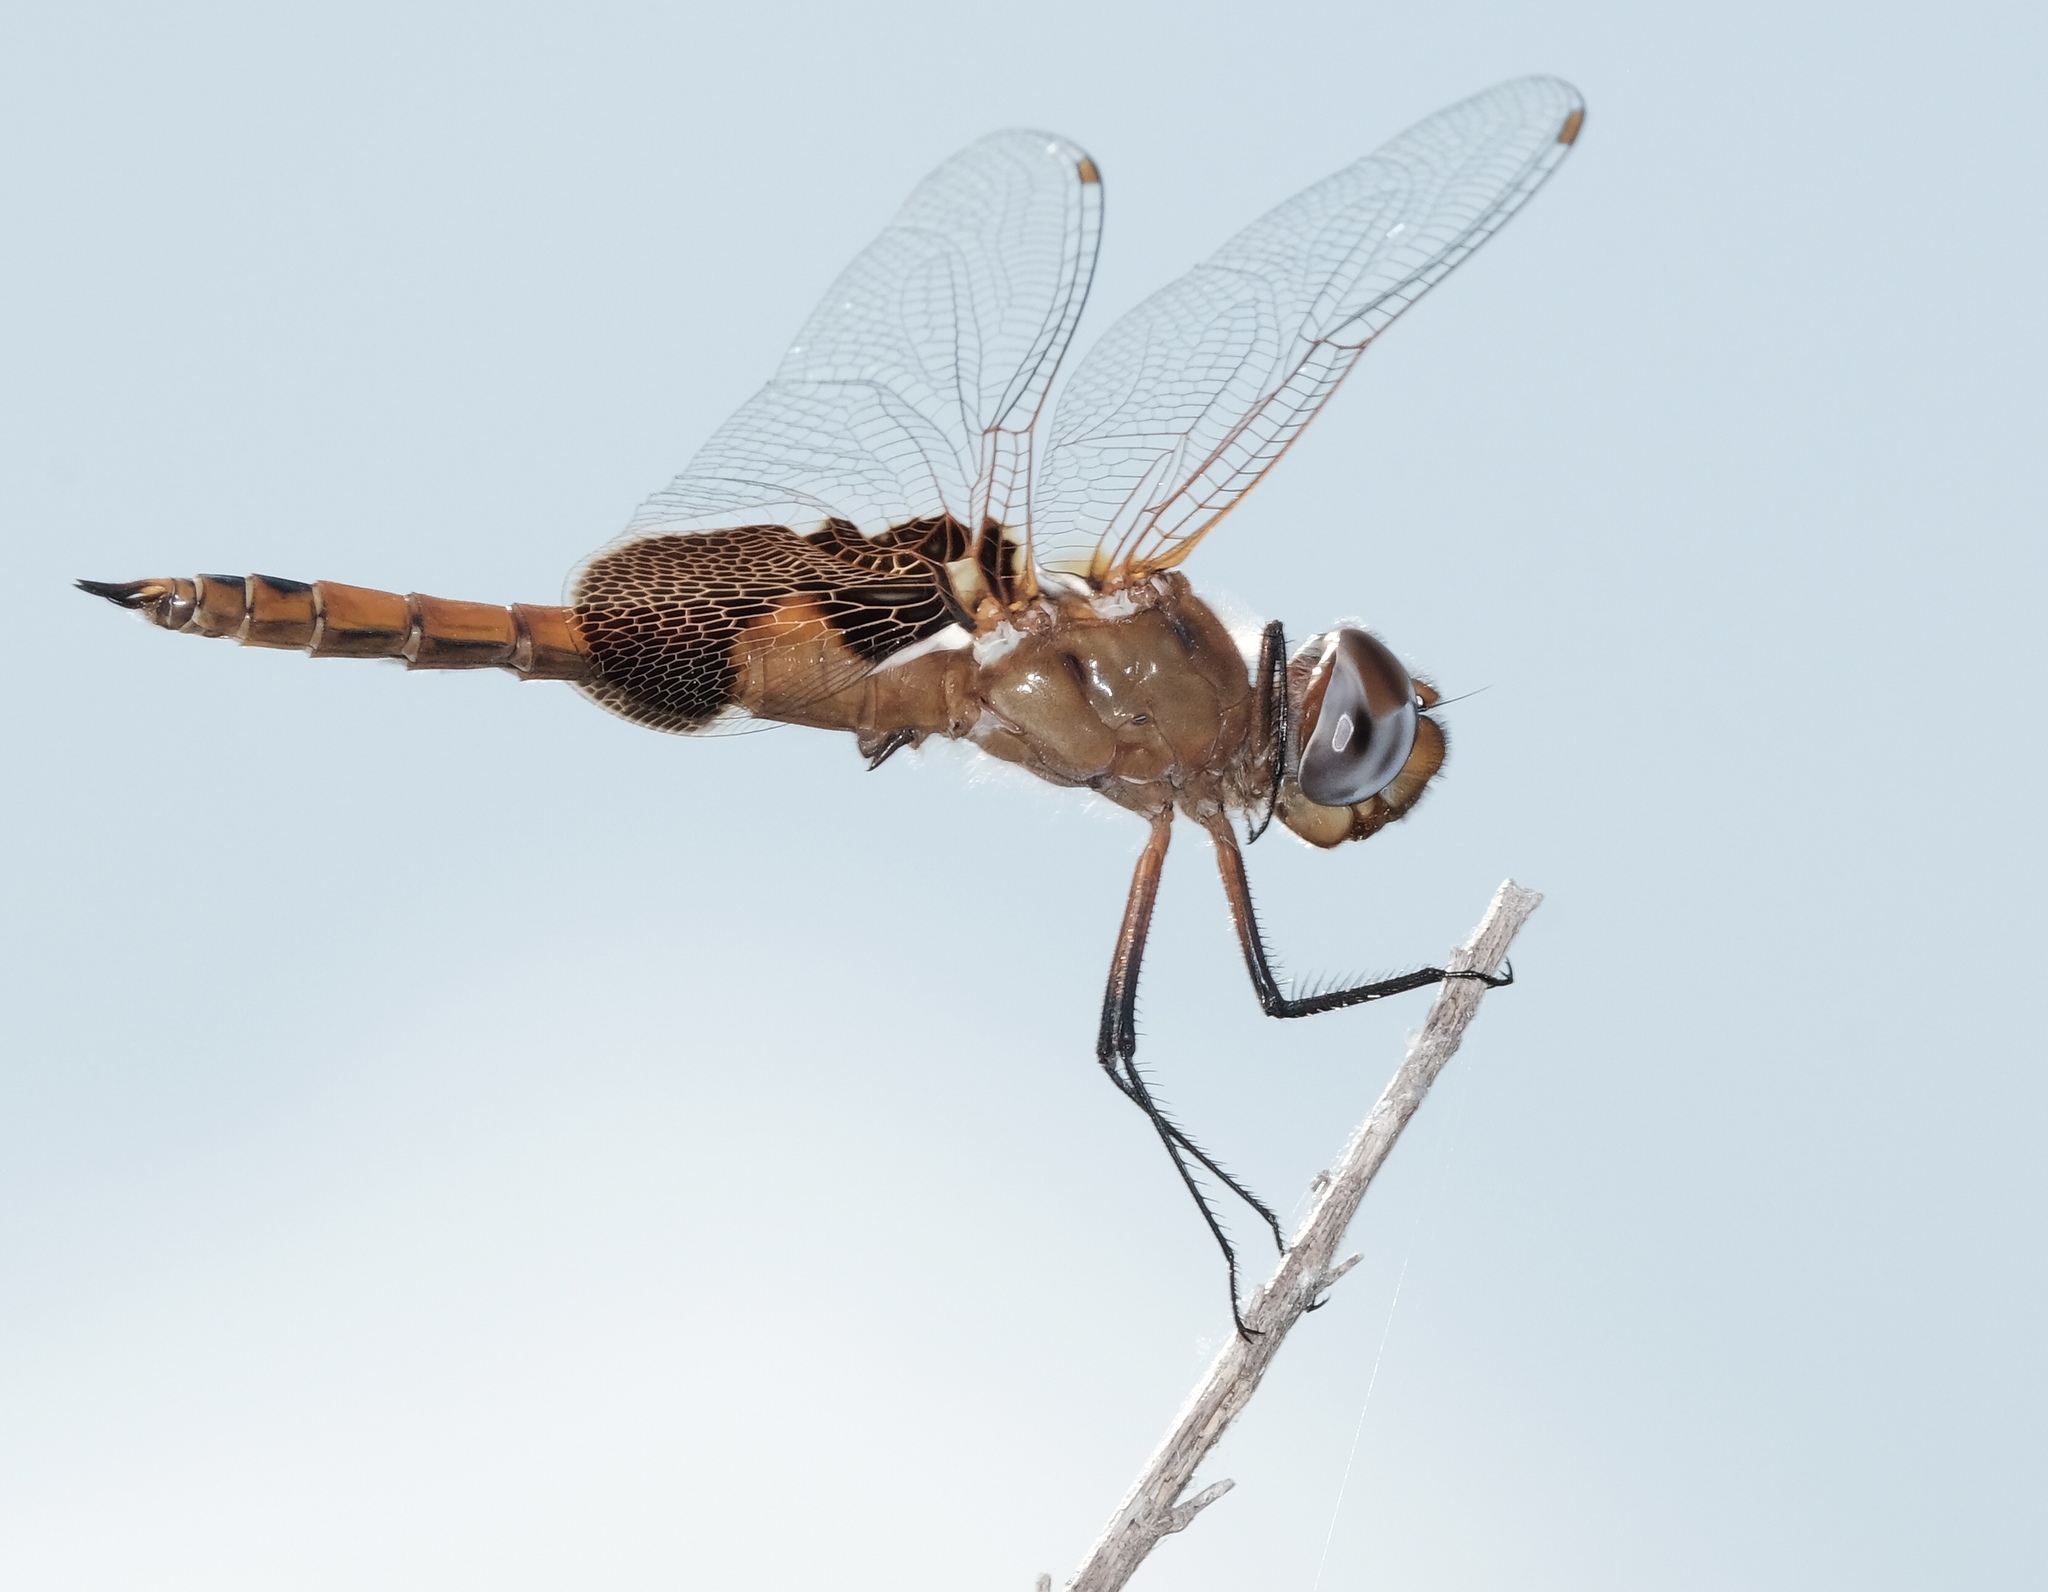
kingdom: Animalia
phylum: Arthropoda
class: Insecta
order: Odonata
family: Libellulidae
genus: Tramea
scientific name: Tramea onusta
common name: Red saddlebags
